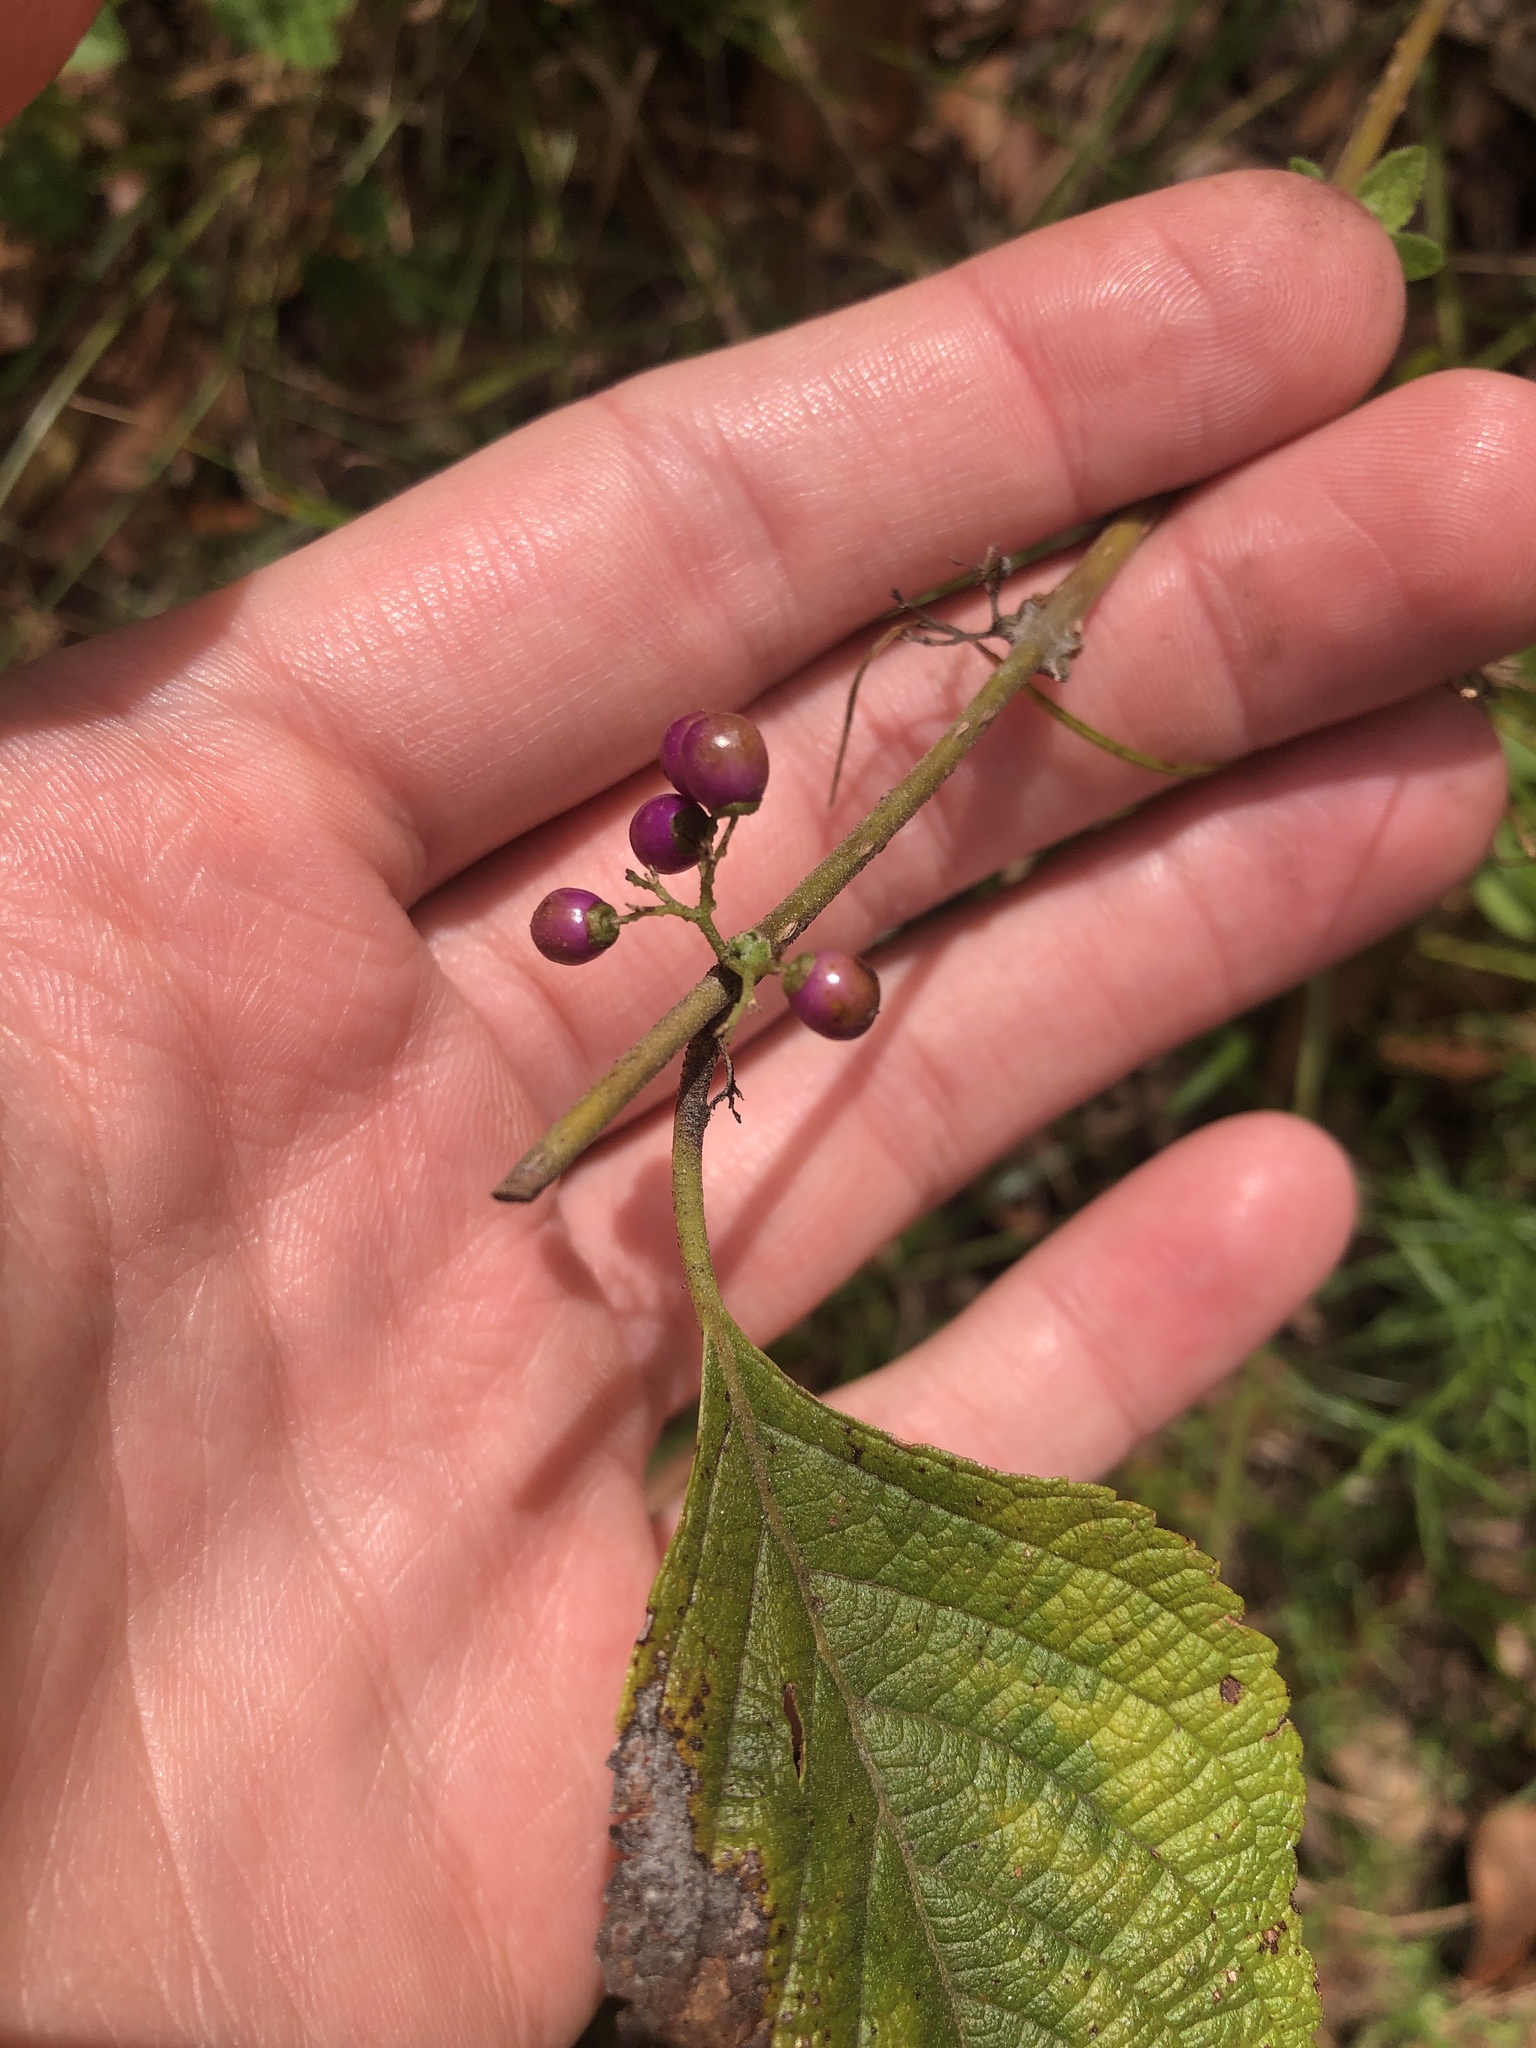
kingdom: Plantae
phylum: Tracheophyta
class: Magnoliopsida
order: Lamiales
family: Lamiaceae
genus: Callicarpa
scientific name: Callicarpa americana
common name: American beautyberry
